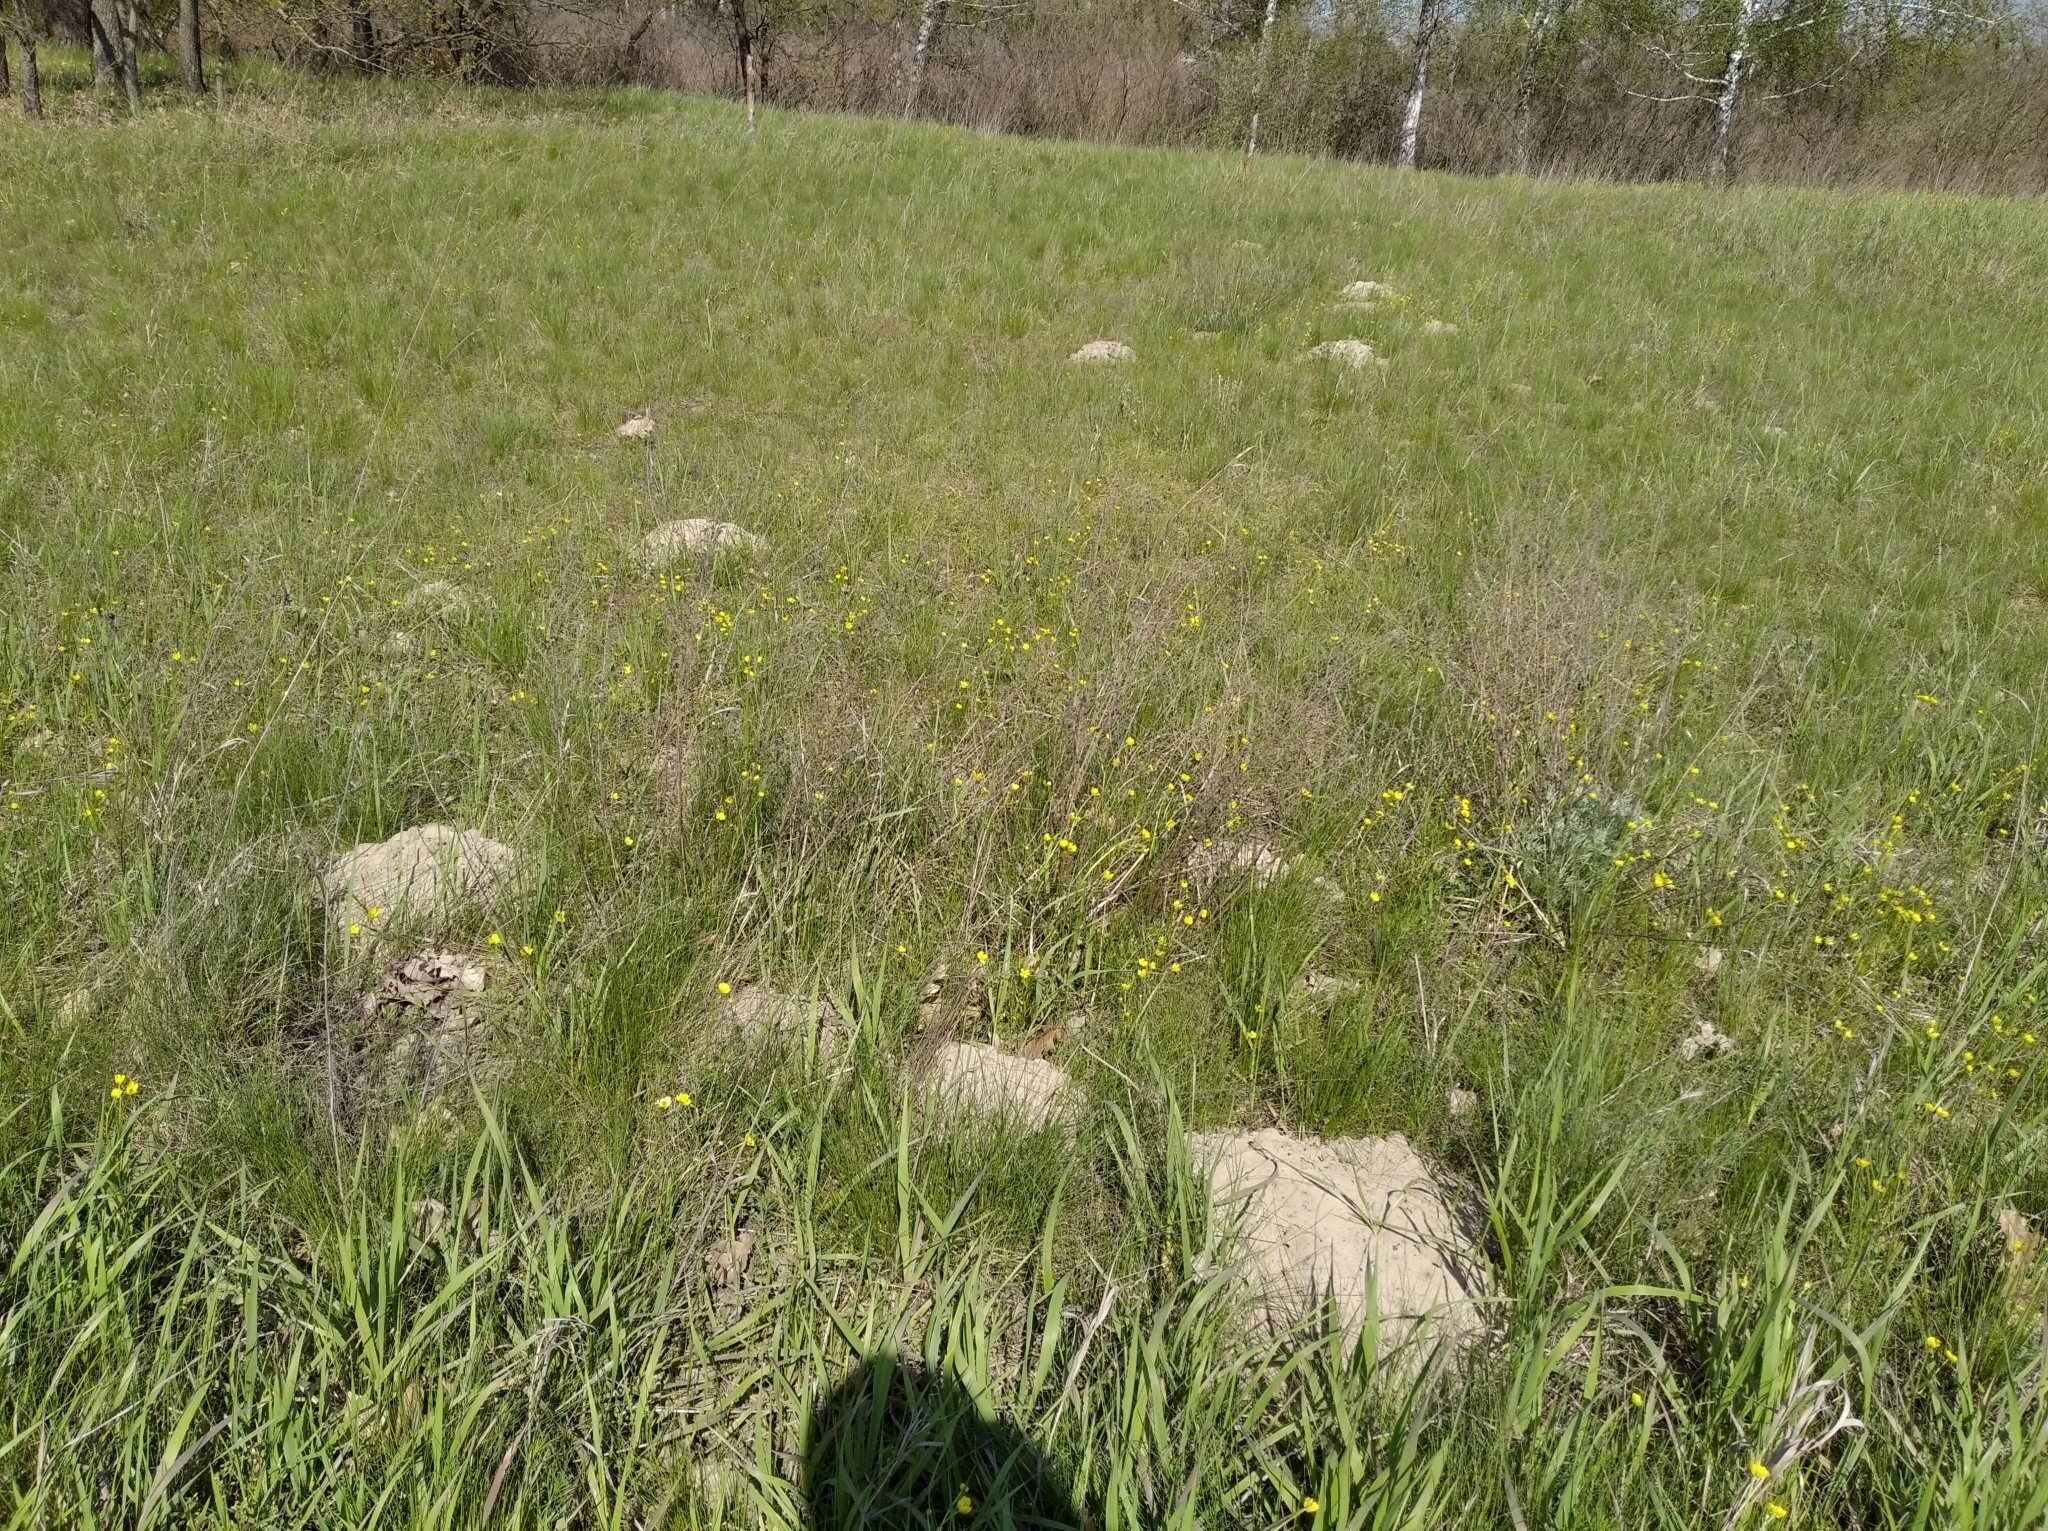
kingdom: Animalia
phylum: Chordata
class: Mammalia
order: Soricomorpha
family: Talpidae
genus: Talpa
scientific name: Talpa europaea
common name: European mole
